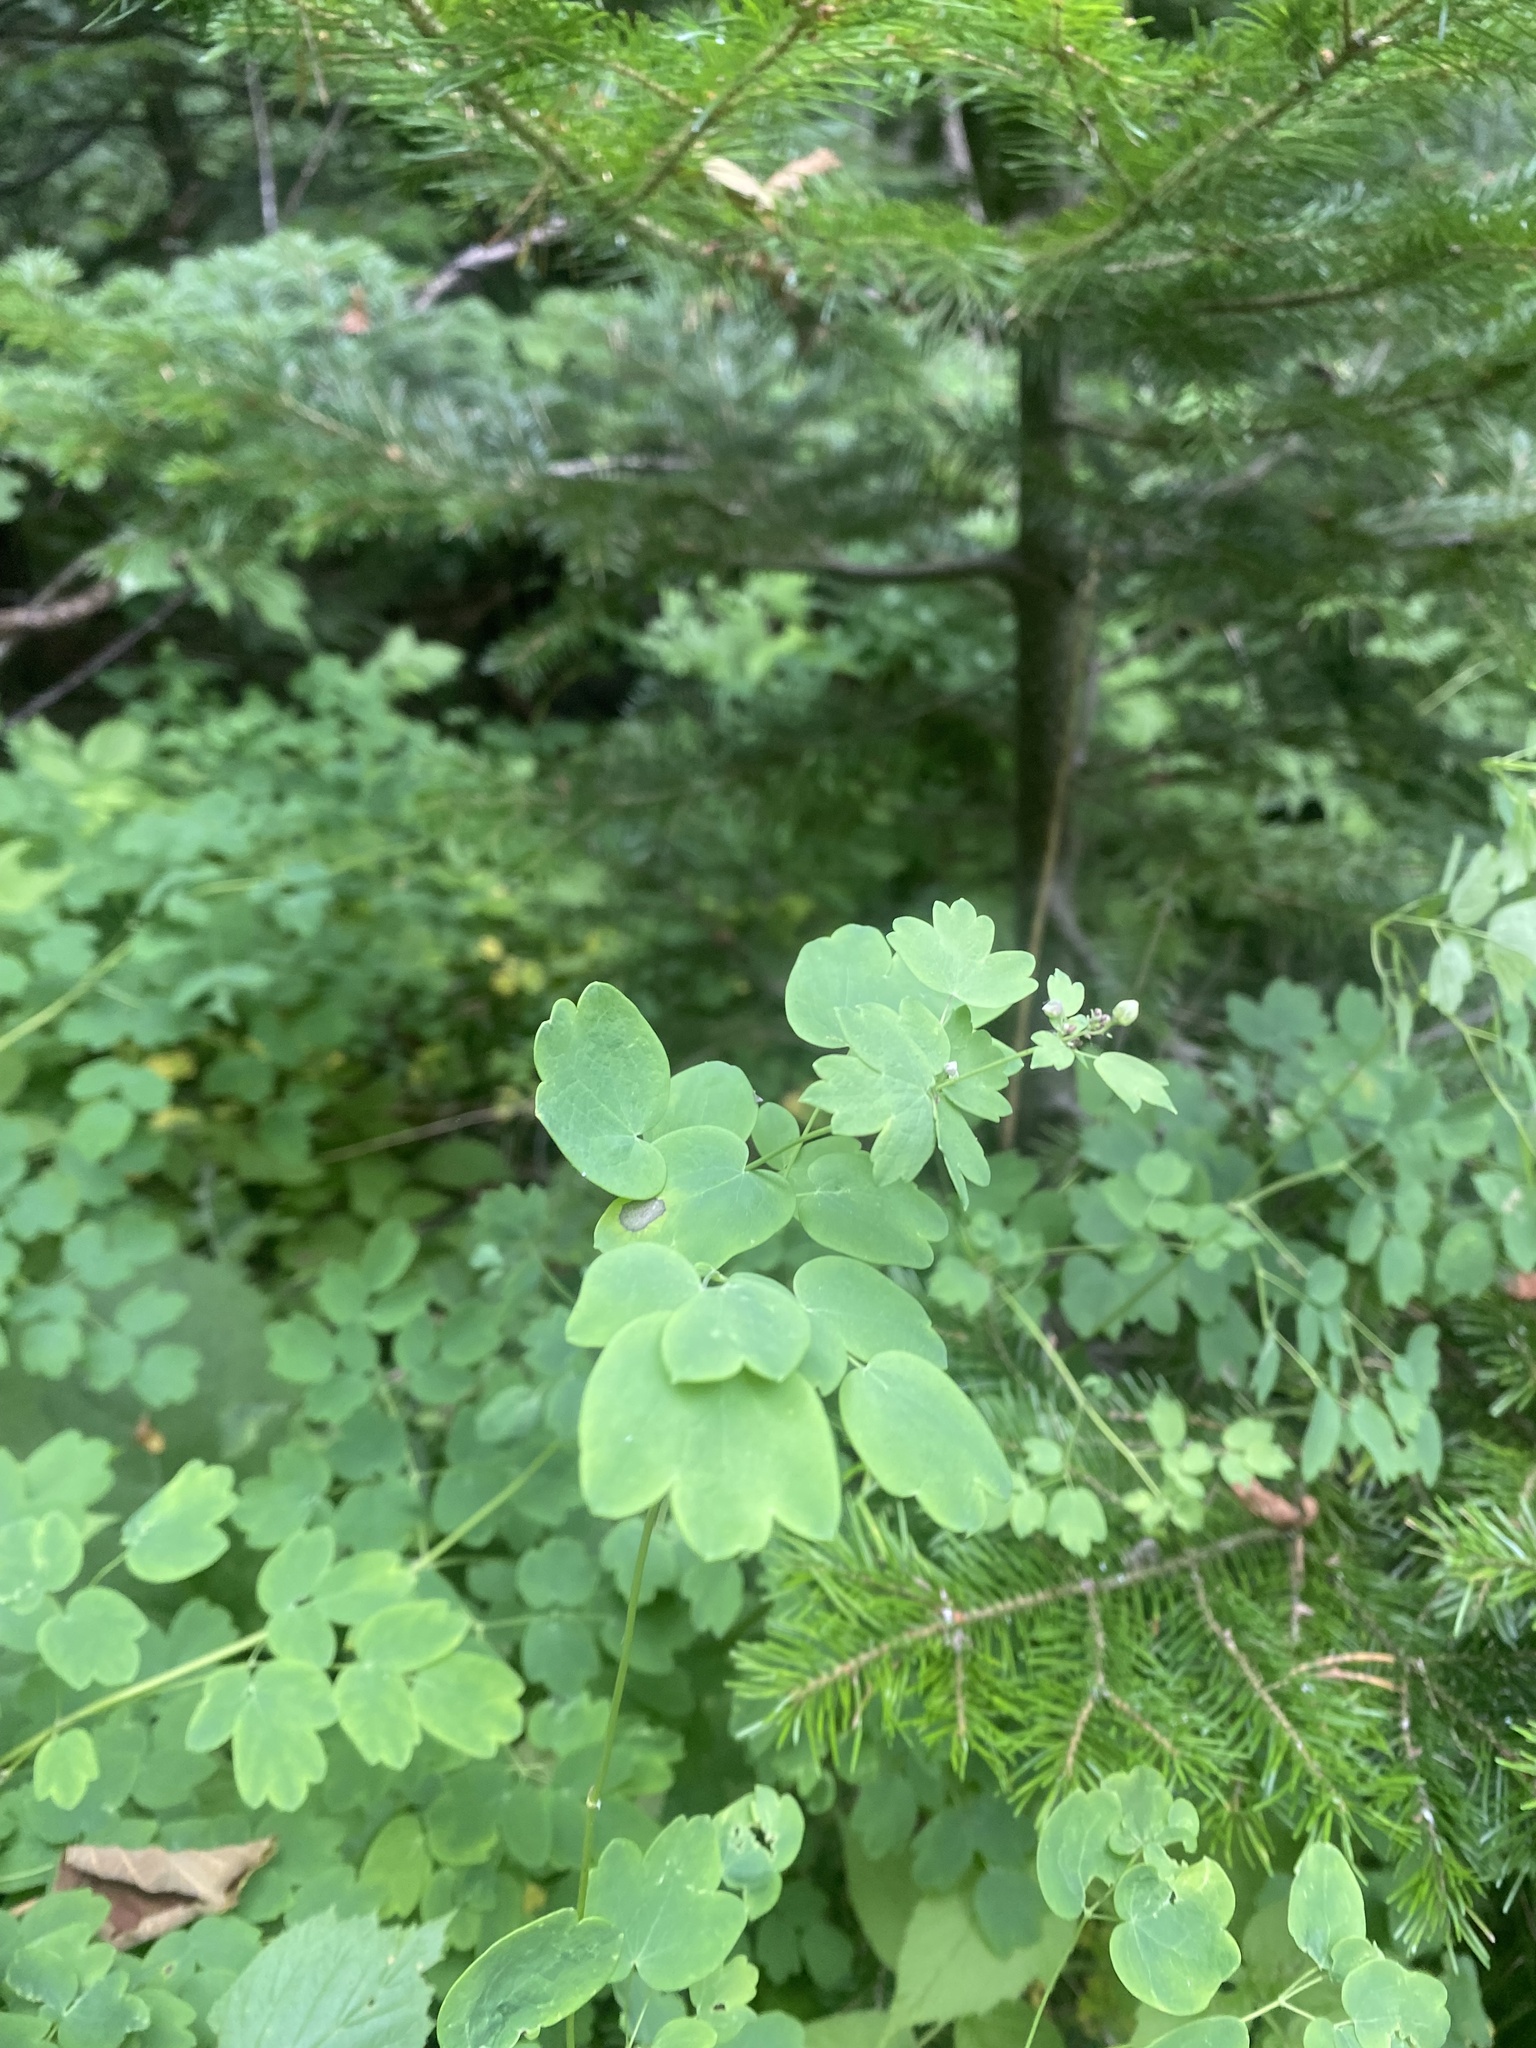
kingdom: Plantae
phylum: Tracheophyta
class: Magnoliopsida
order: Ranunculales
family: Ranunculaceae
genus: Thalictrum
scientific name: Thalictrum minus
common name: Lesser meadow-rue
